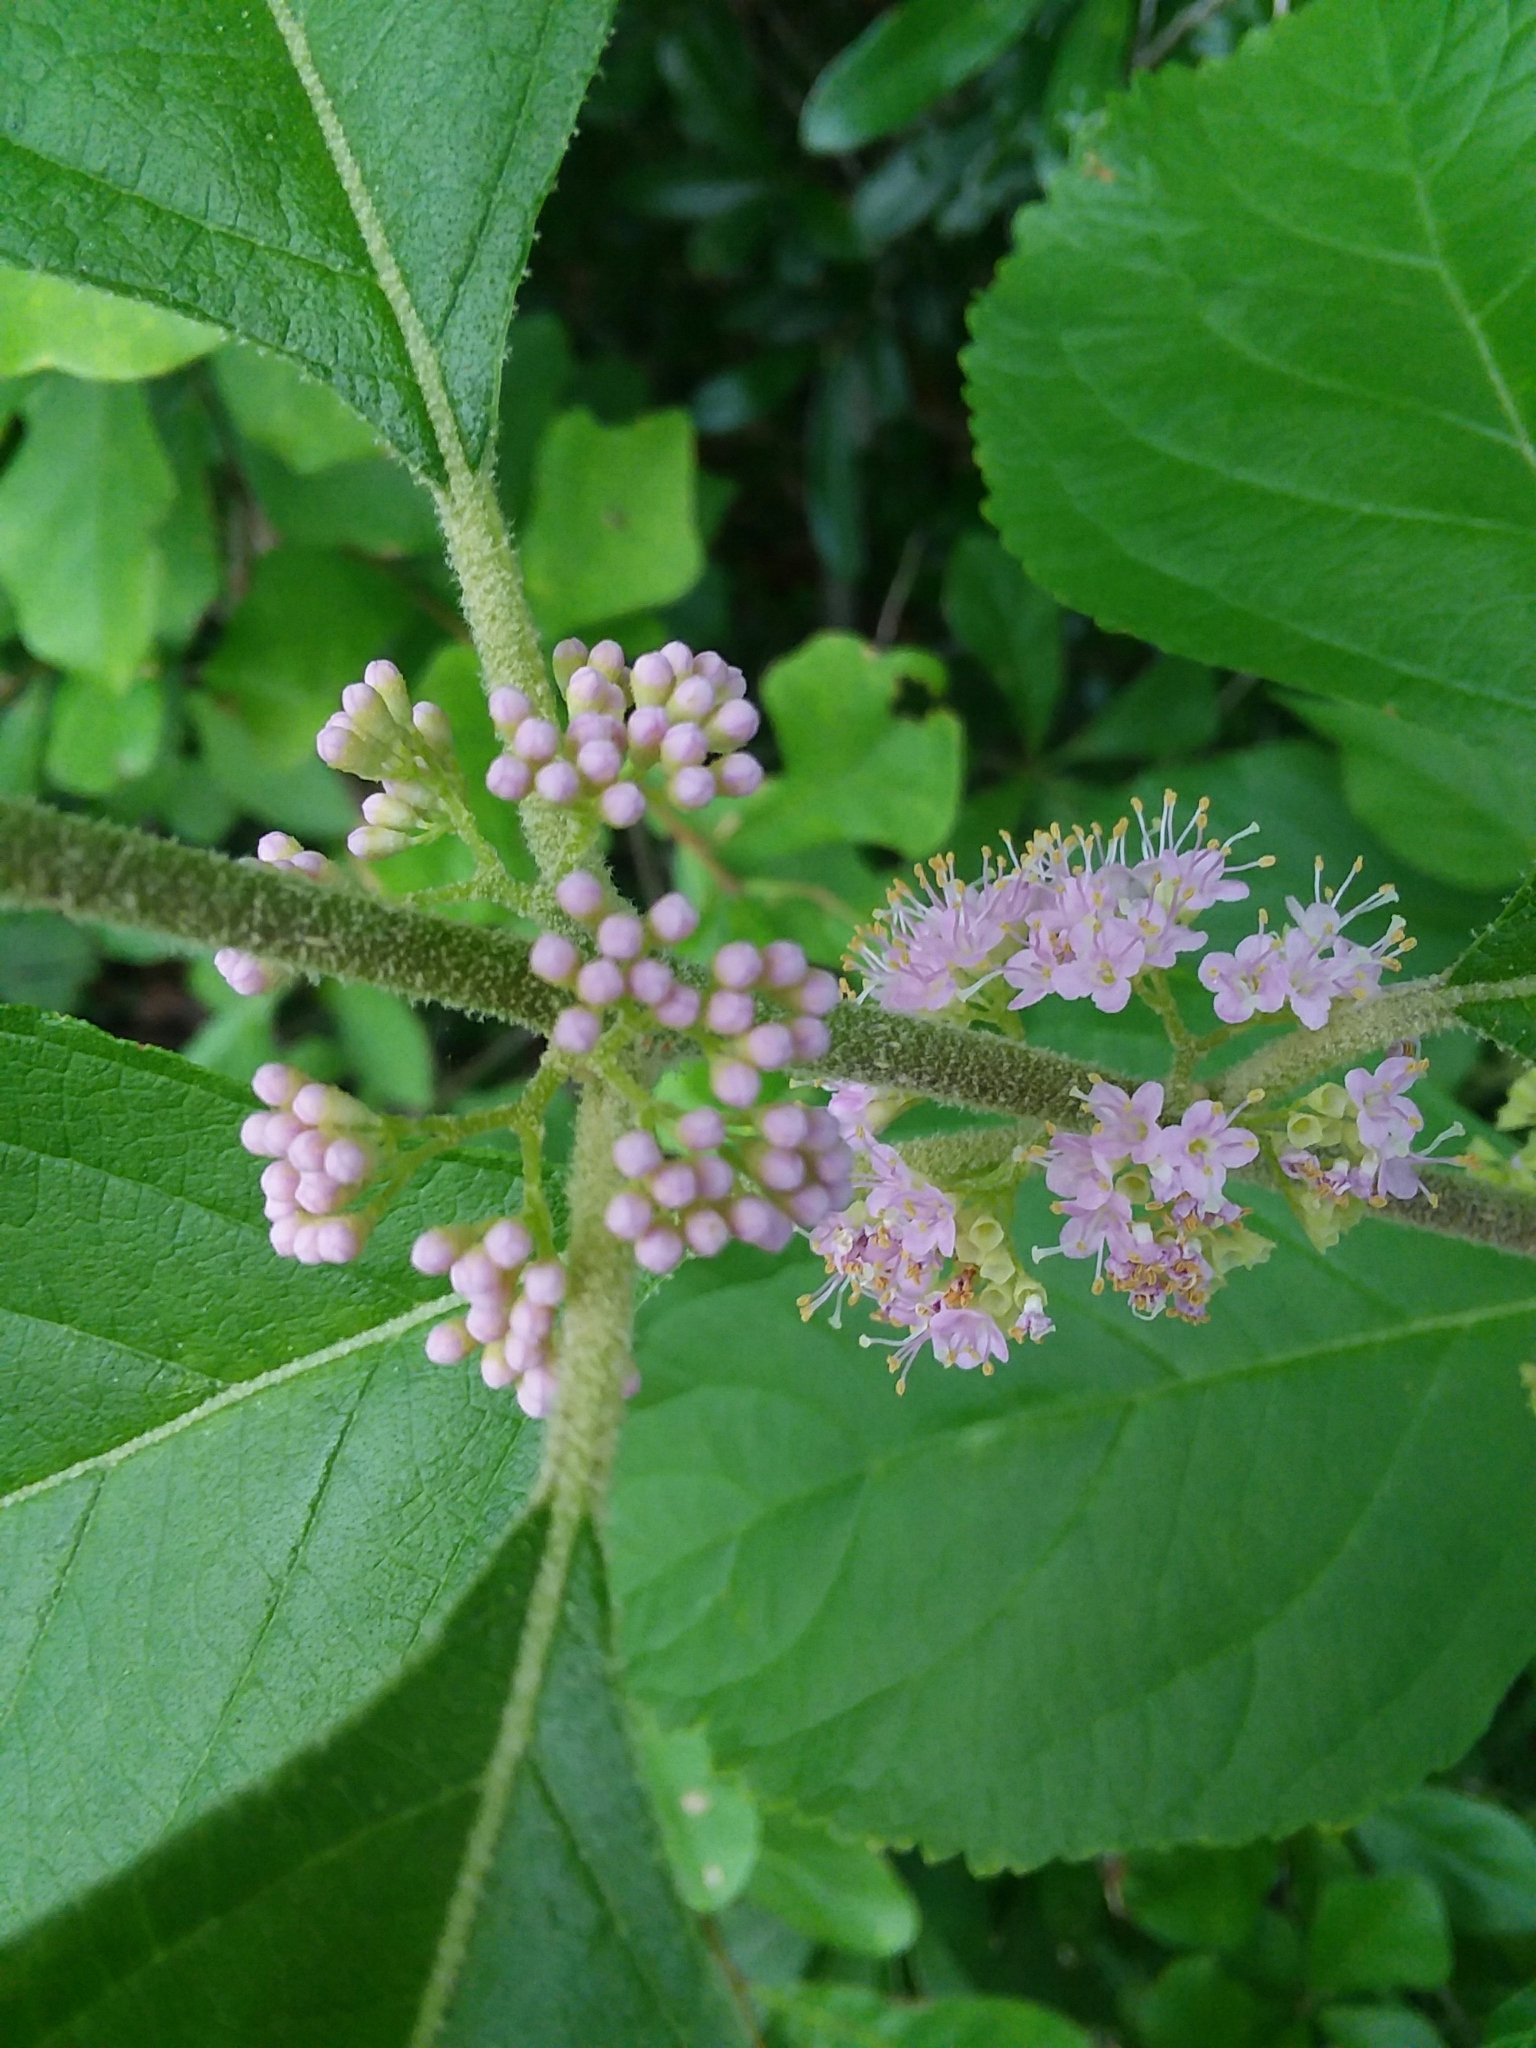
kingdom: Plantae
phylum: Tracheophyta
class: Magnoliopsida
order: Lamiales
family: Lamiaceae
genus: Callicarpa
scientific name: Callicarpa americana
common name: American beautyberry
